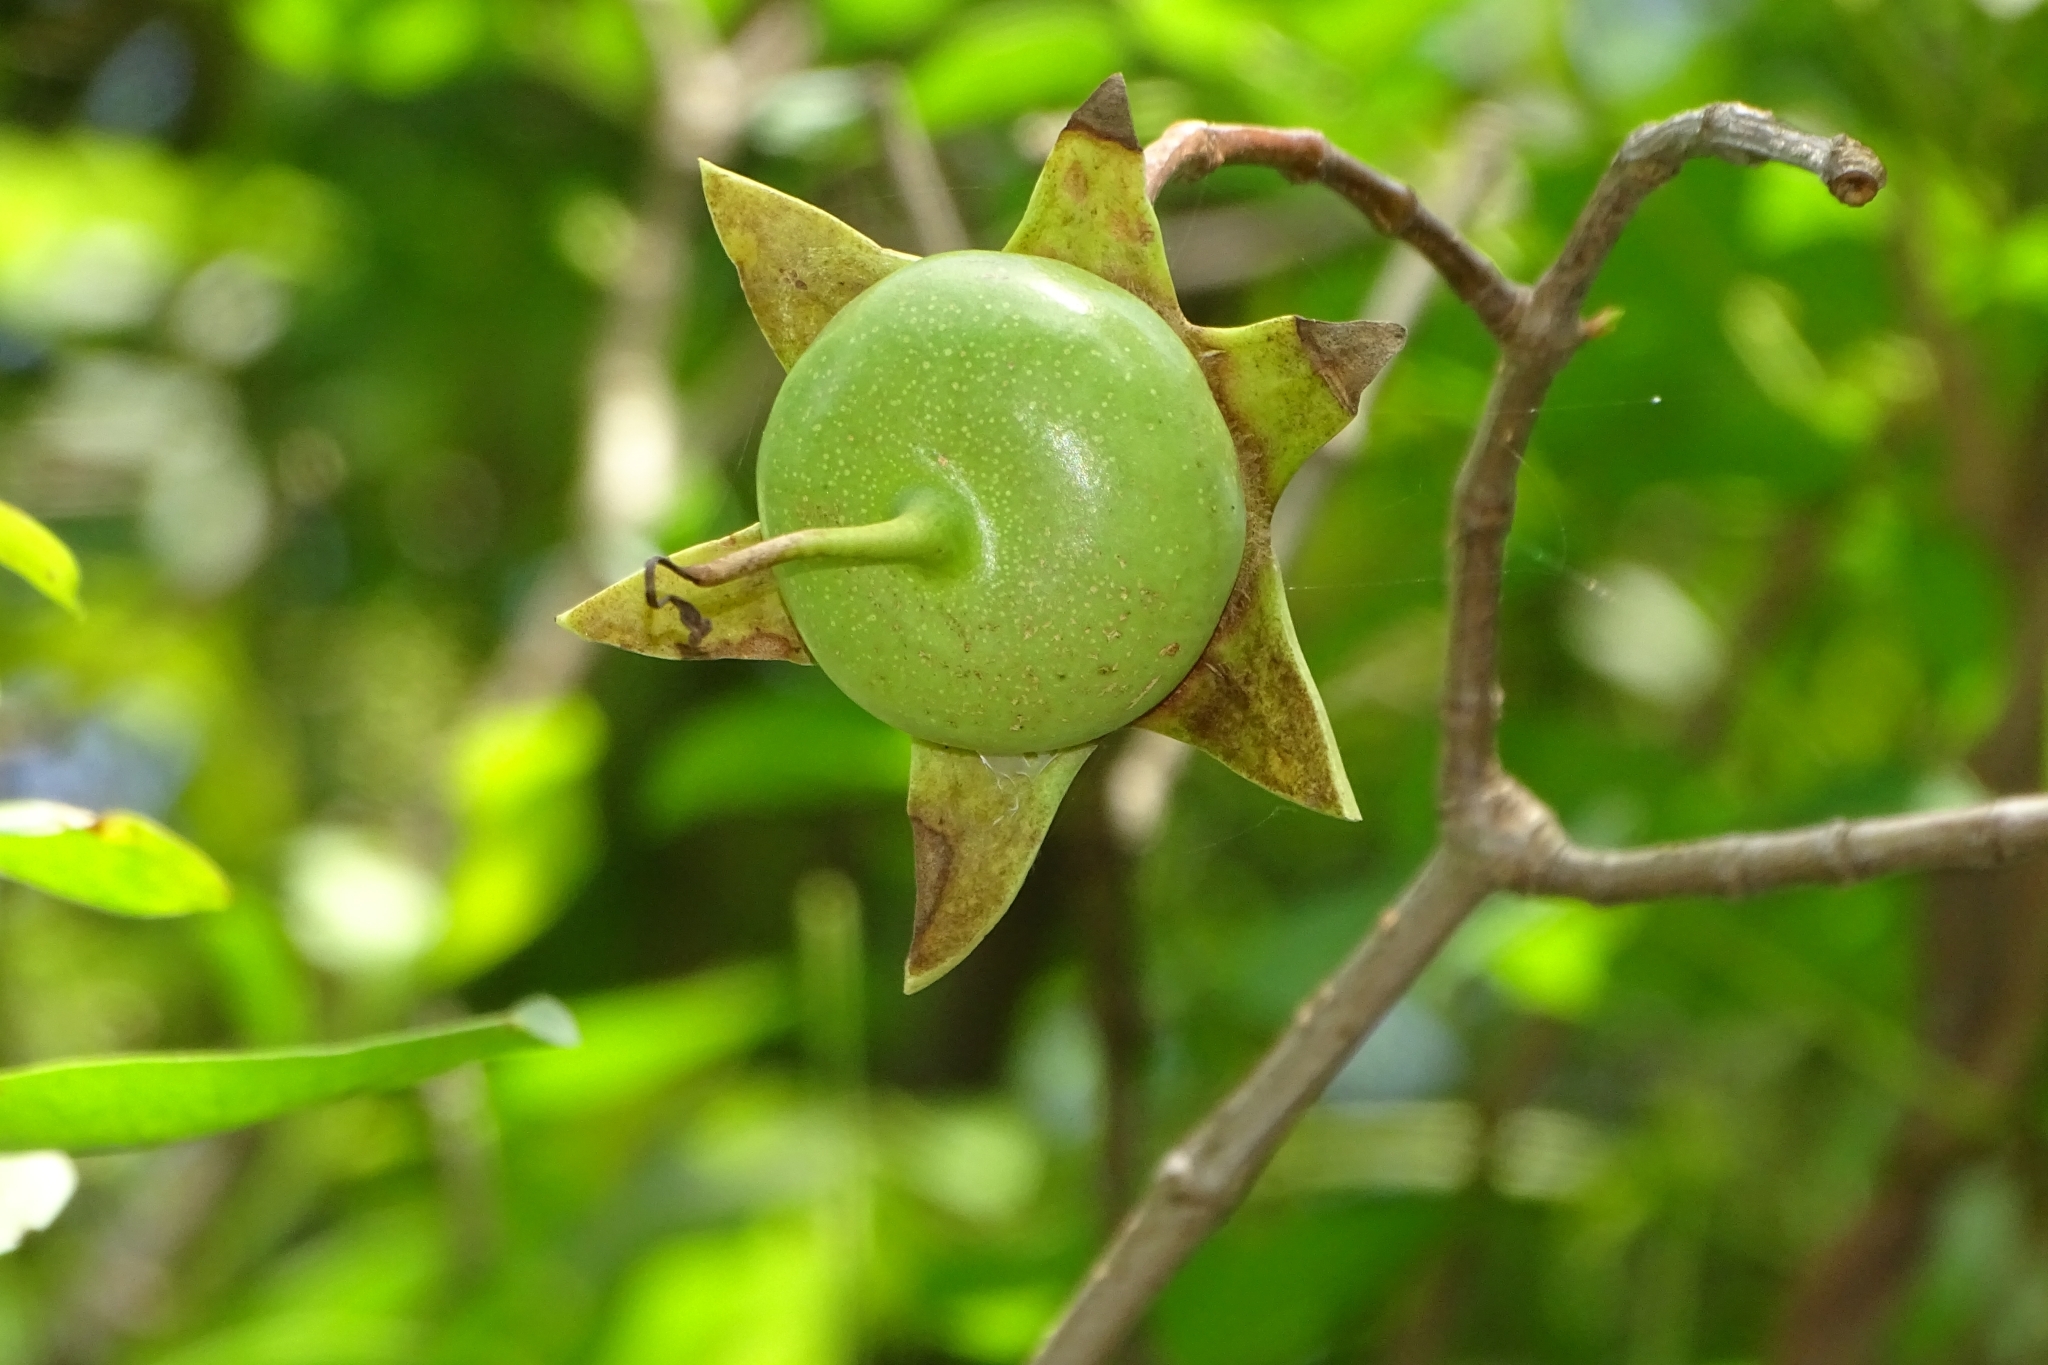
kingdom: Plantae
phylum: Tracheophyta
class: Magnoliopsida
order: Myrtales
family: Lythraceae
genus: Sonneratia
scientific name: Sonneratia caseolaris
